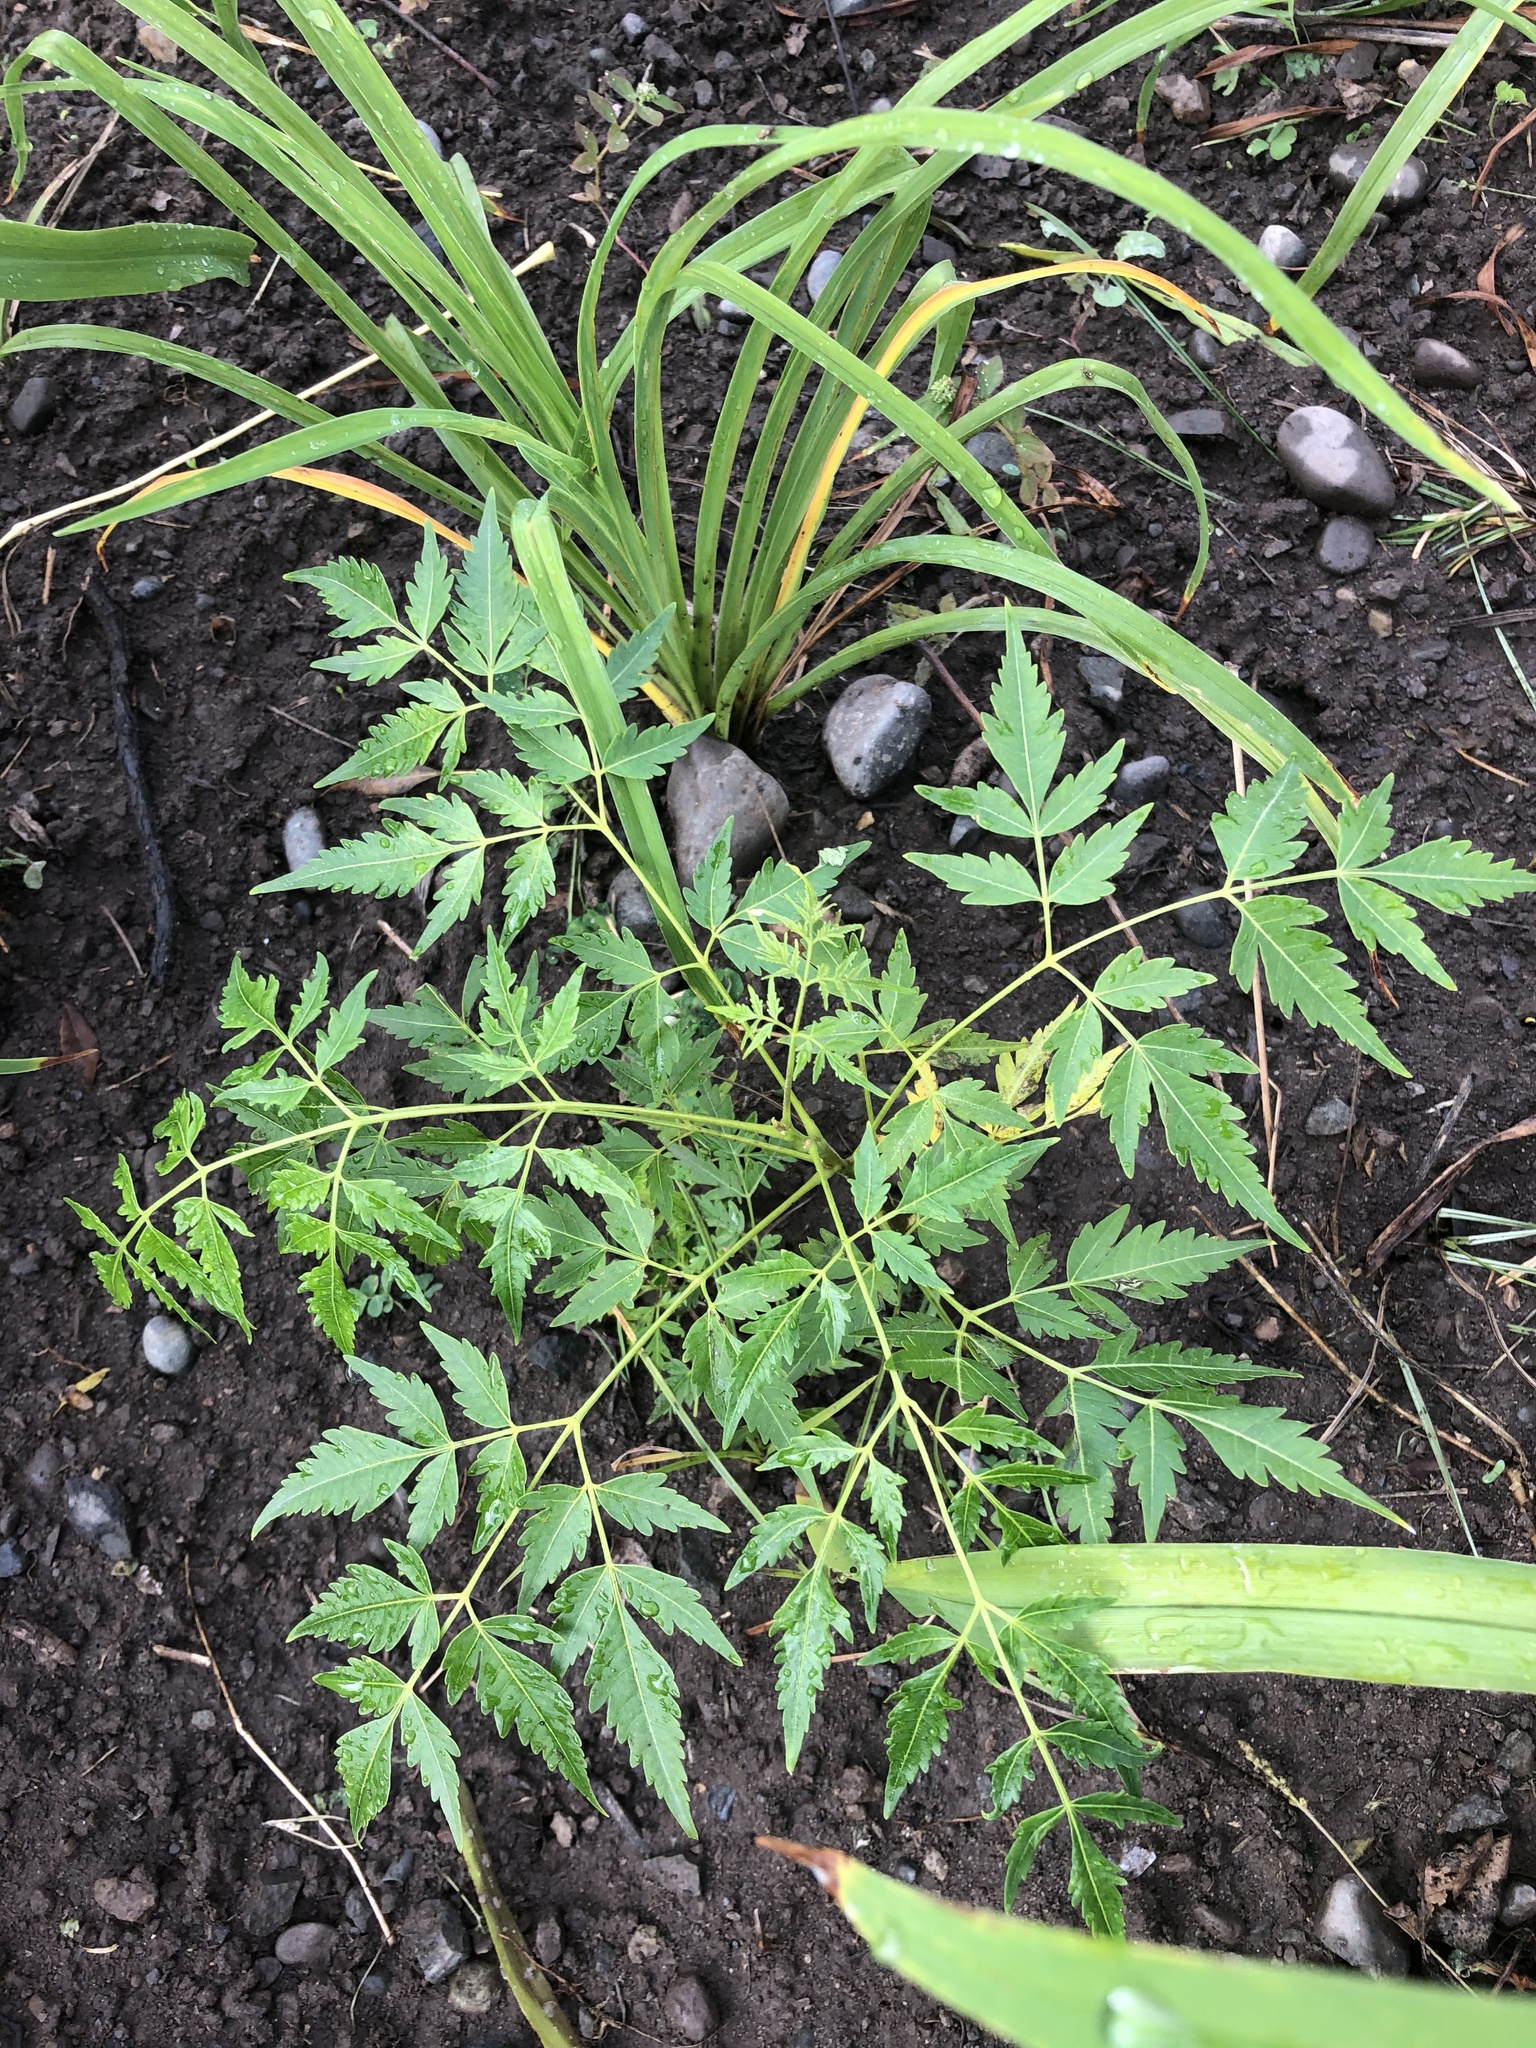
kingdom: Plantae
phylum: Tracheophyta
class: Magnoliopsida
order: Sapindales
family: Meliaceae
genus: Melia
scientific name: Melia azedarach
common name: Chinaberrytree
